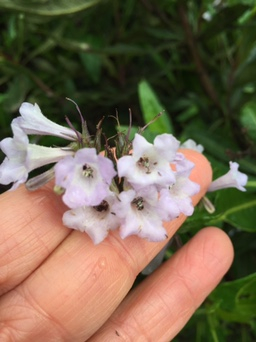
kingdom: Plantae
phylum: Tracheophyta
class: Magnoliopsida
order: Boraginales
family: Namaceae
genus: Eriodictyon
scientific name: Eriodictyon californicum
